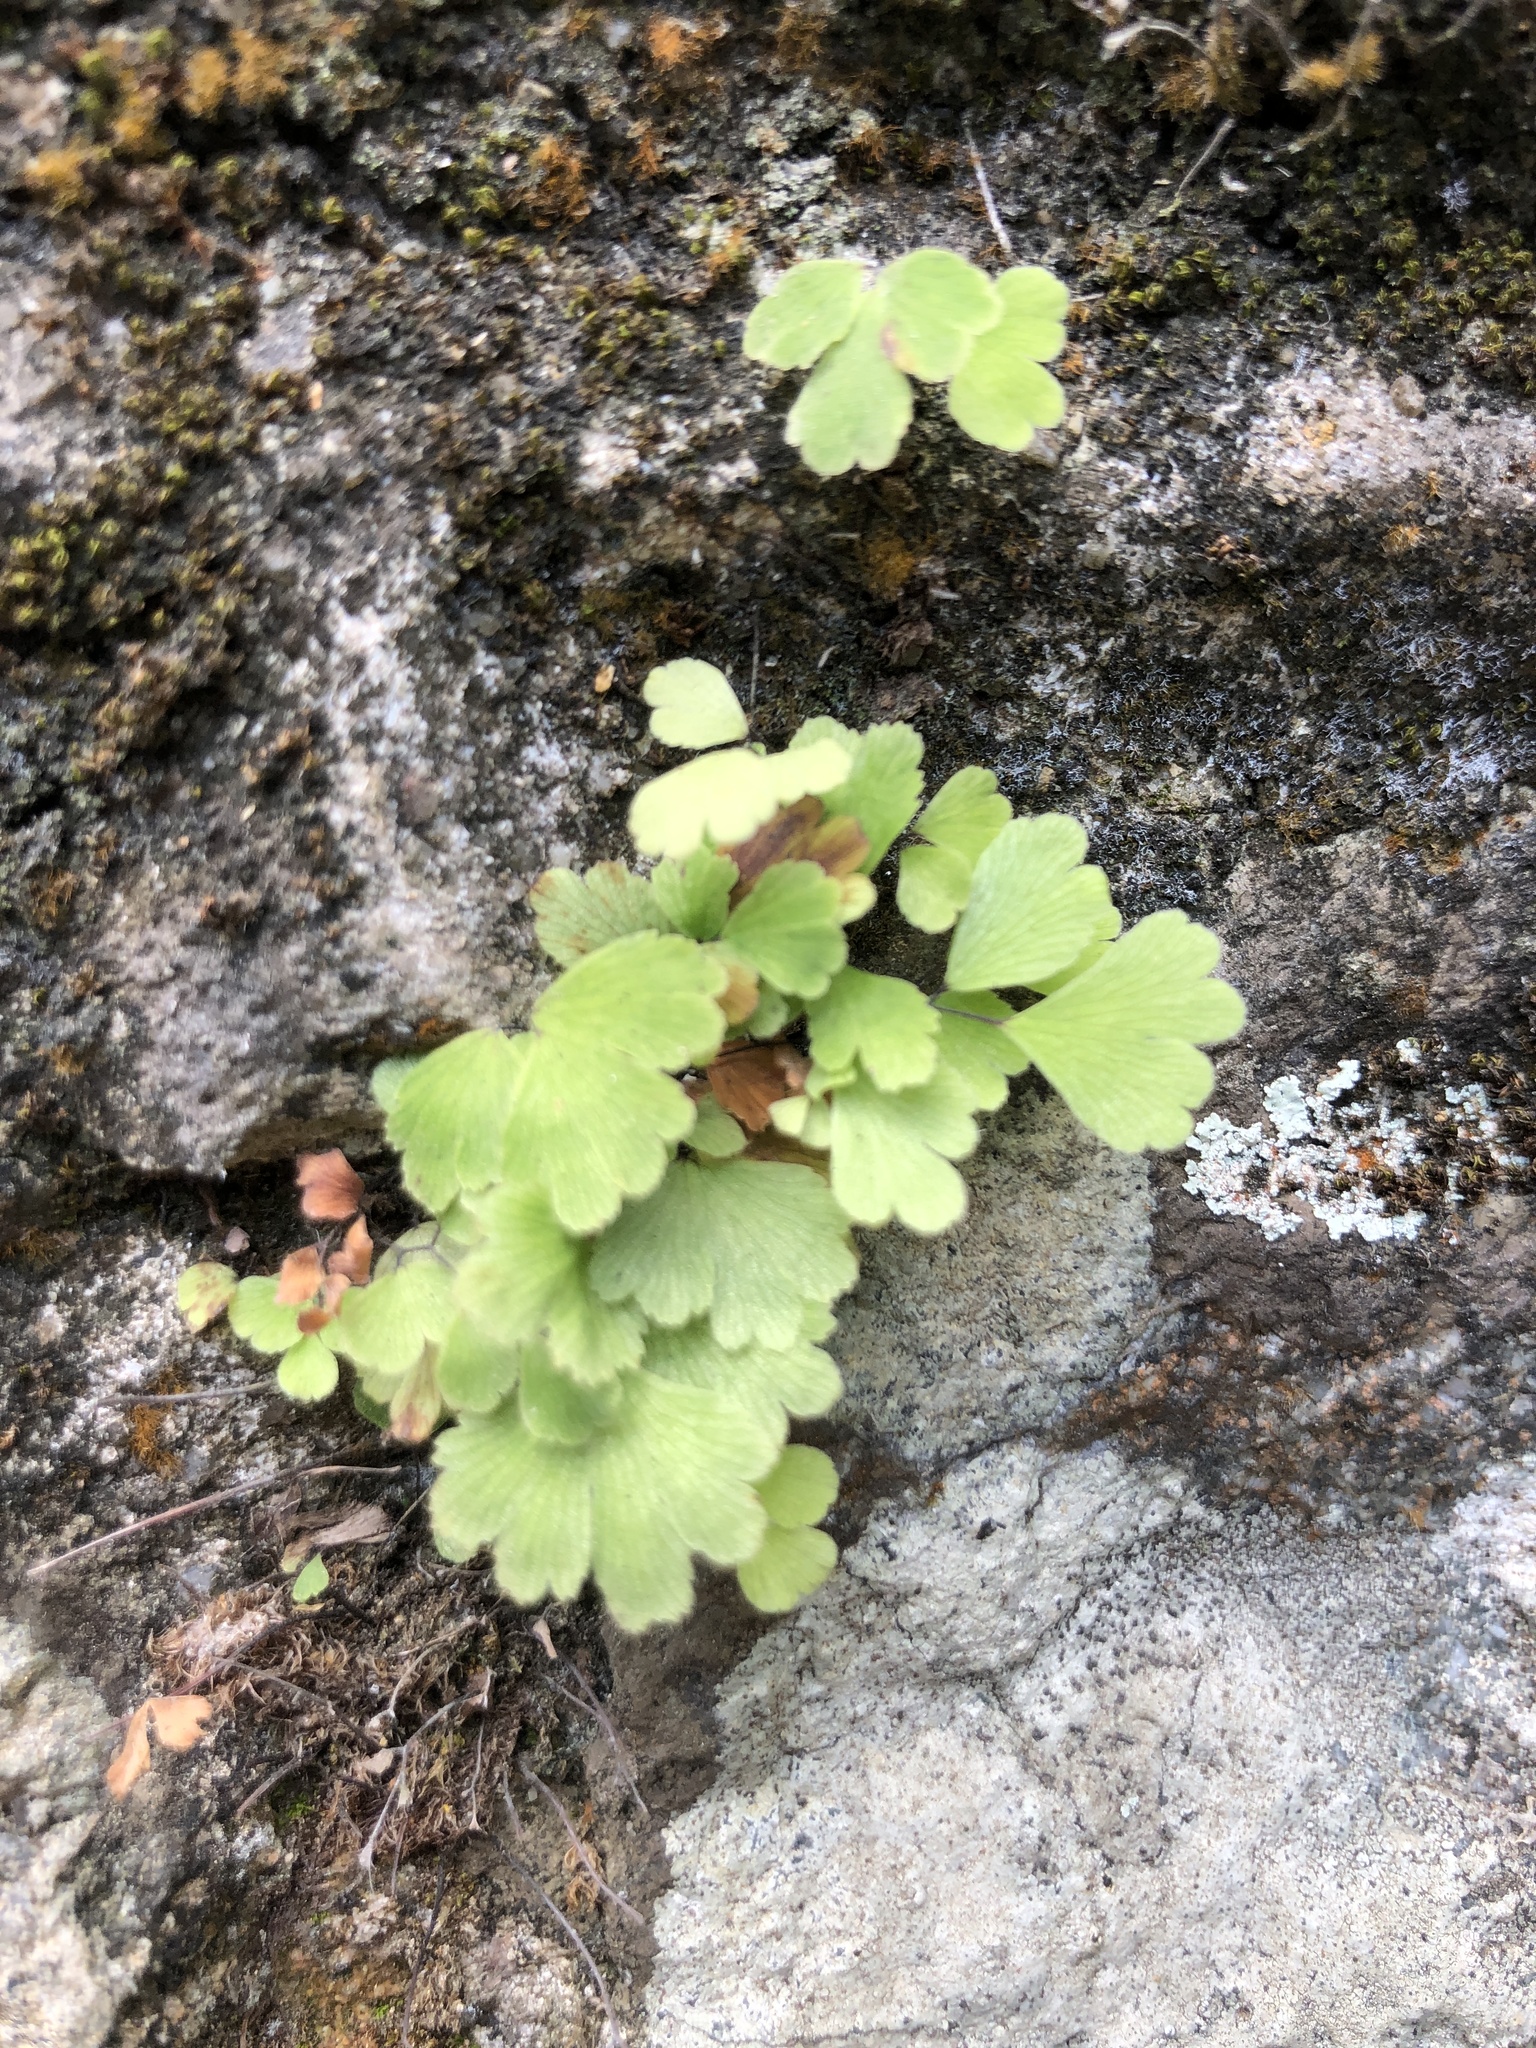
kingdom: Plantae
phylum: Tracheophyta
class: Polypodiopsida
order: Polypodiales
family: Pteridaceae
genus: Adiantum
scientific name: Adiantum capillus-veneris
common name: Maidenhair fern
